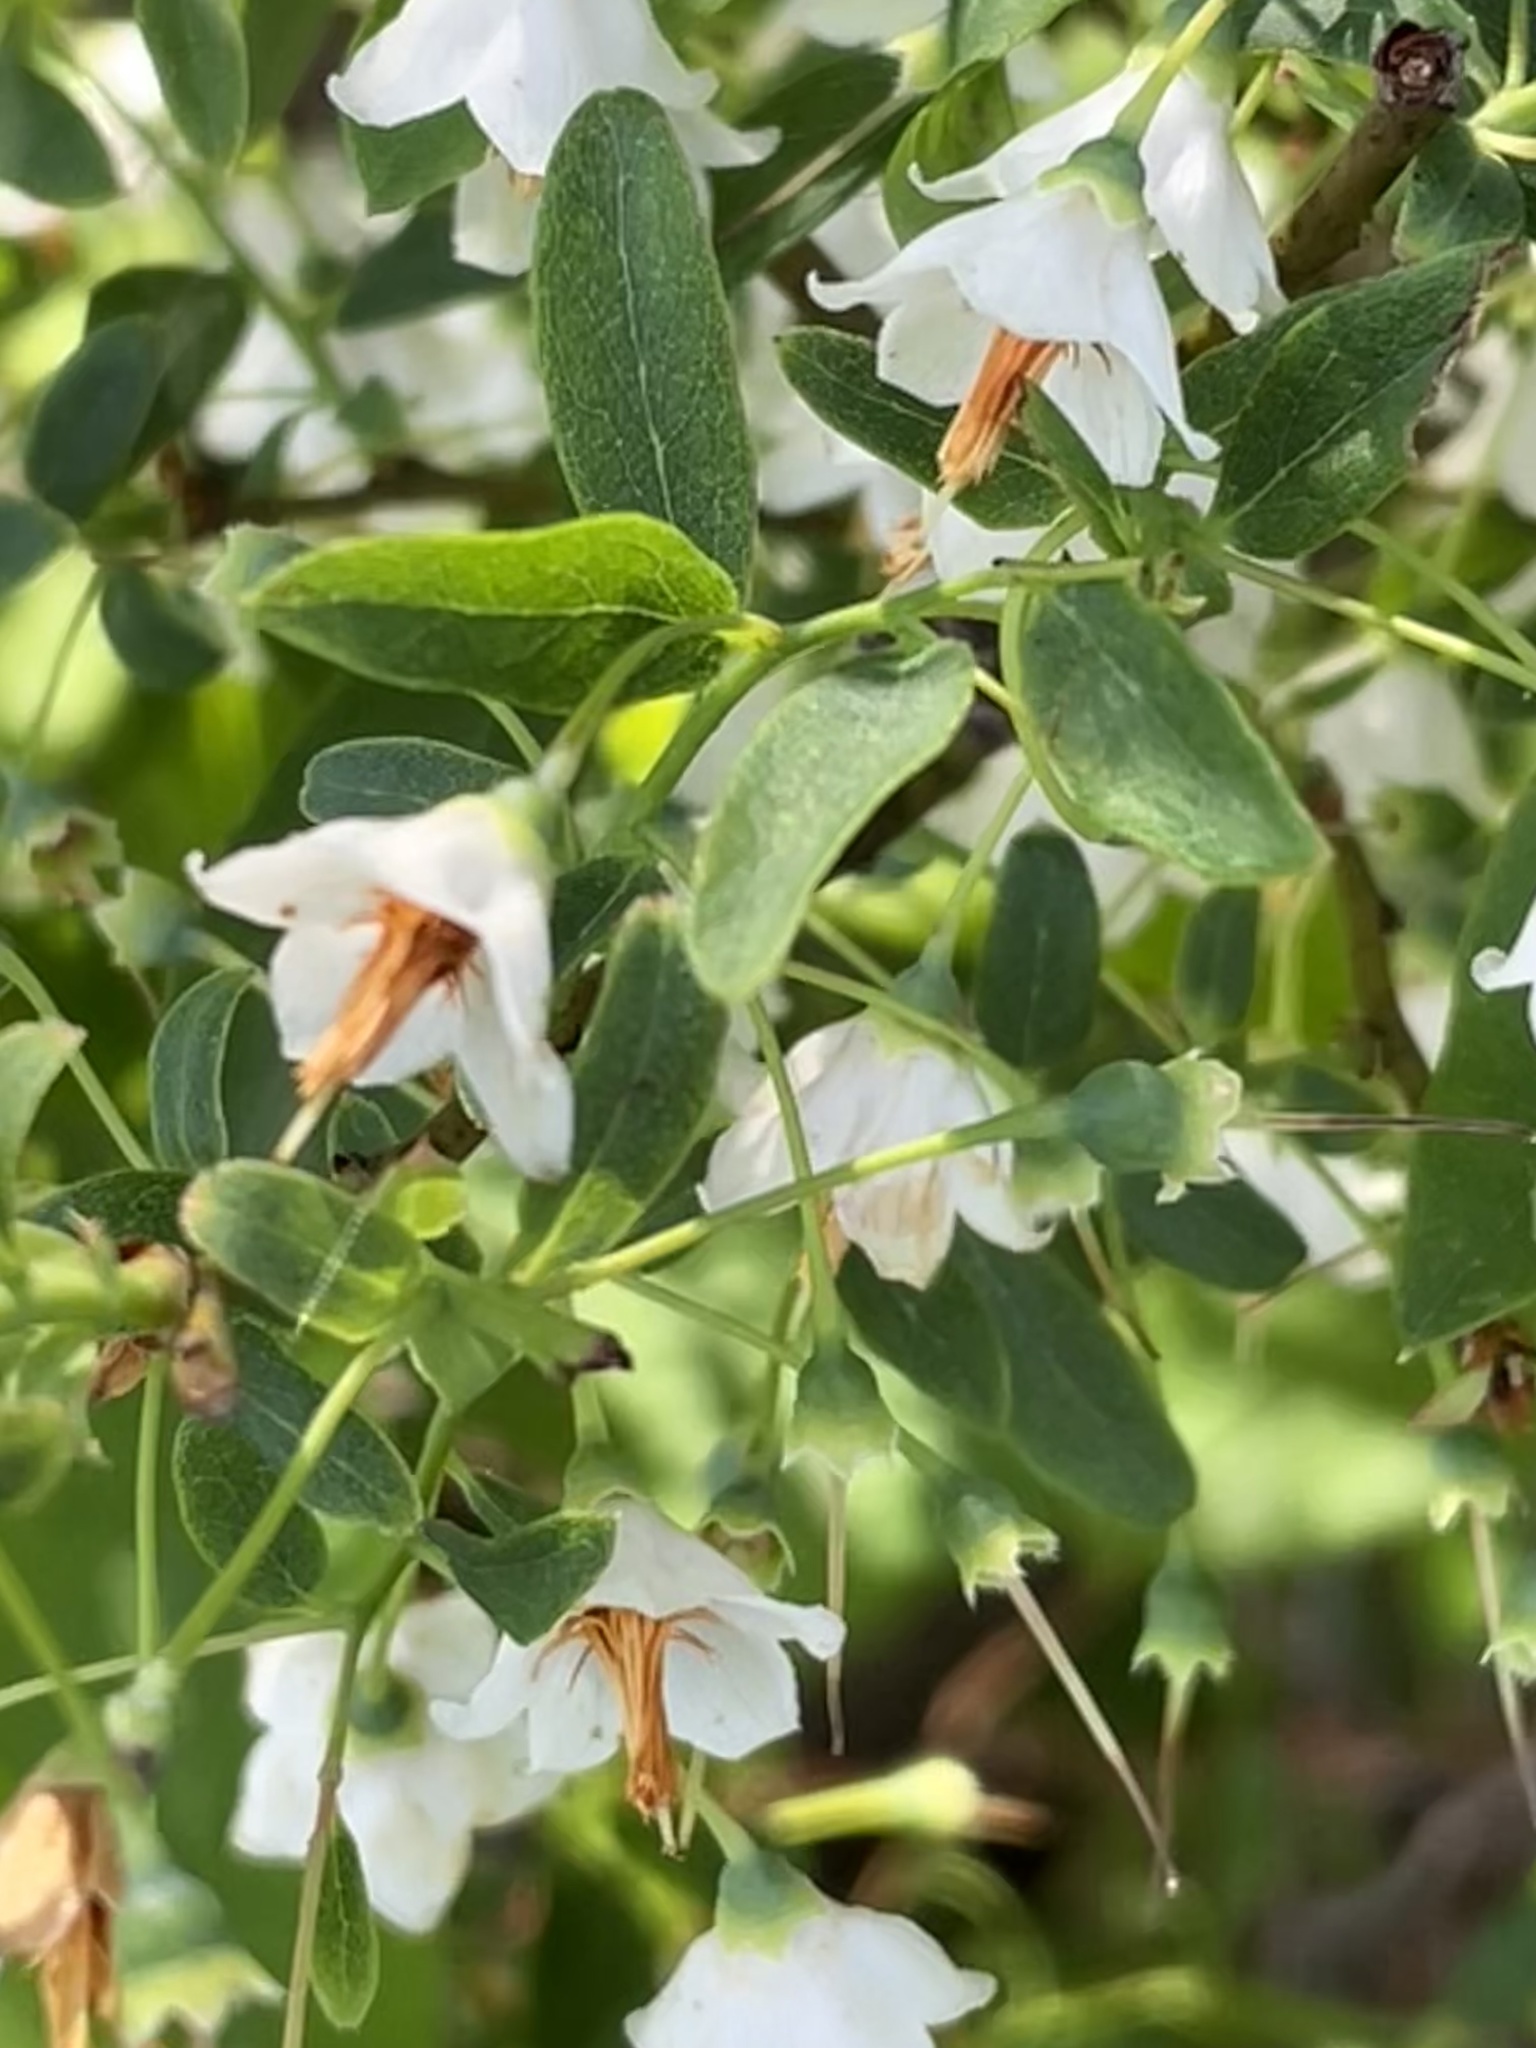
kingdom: Plantae
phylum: Tracheophyta
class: Magnoliopsida
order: Ericales
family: Ericaceae
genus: Vaccinium
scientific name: Vaccinium stamineum
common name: Deerberry
